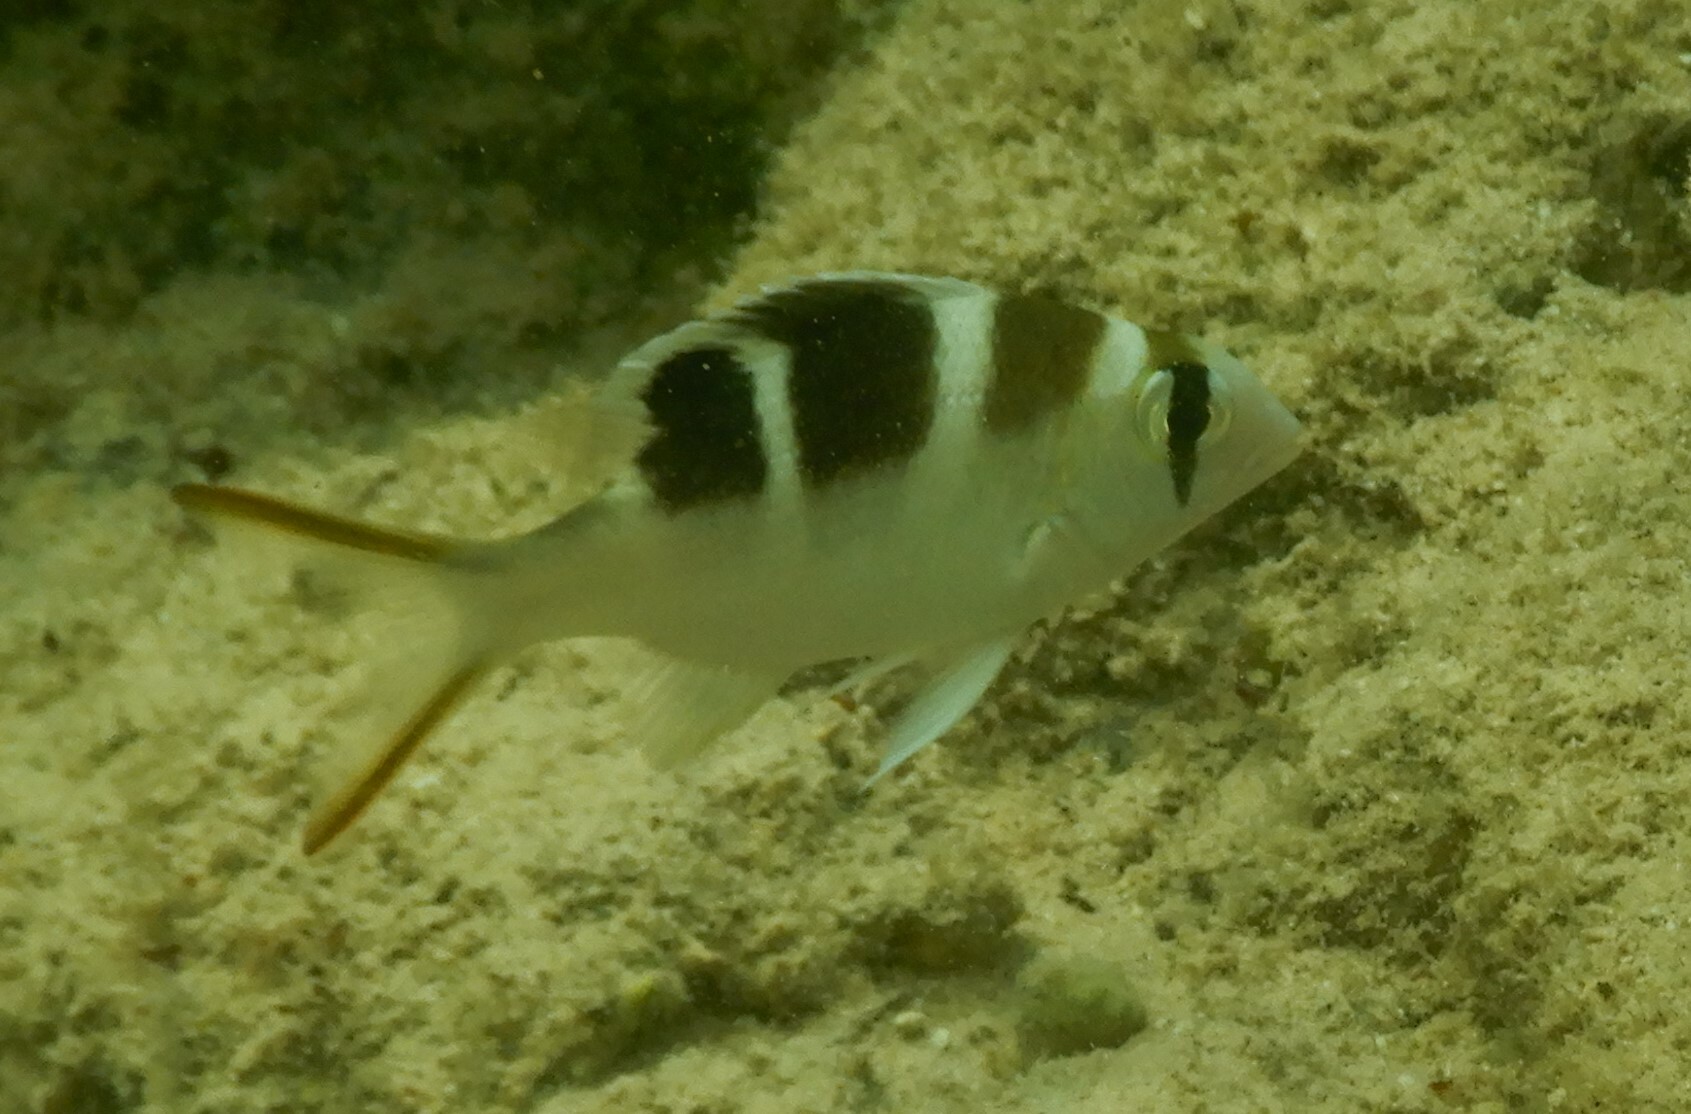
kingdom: Animalia
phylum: Chordata
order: Perciformes
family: Lethrinidae
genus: Monotaxis
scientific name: Monotaxis grandoculis
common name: Bigeye emperor
